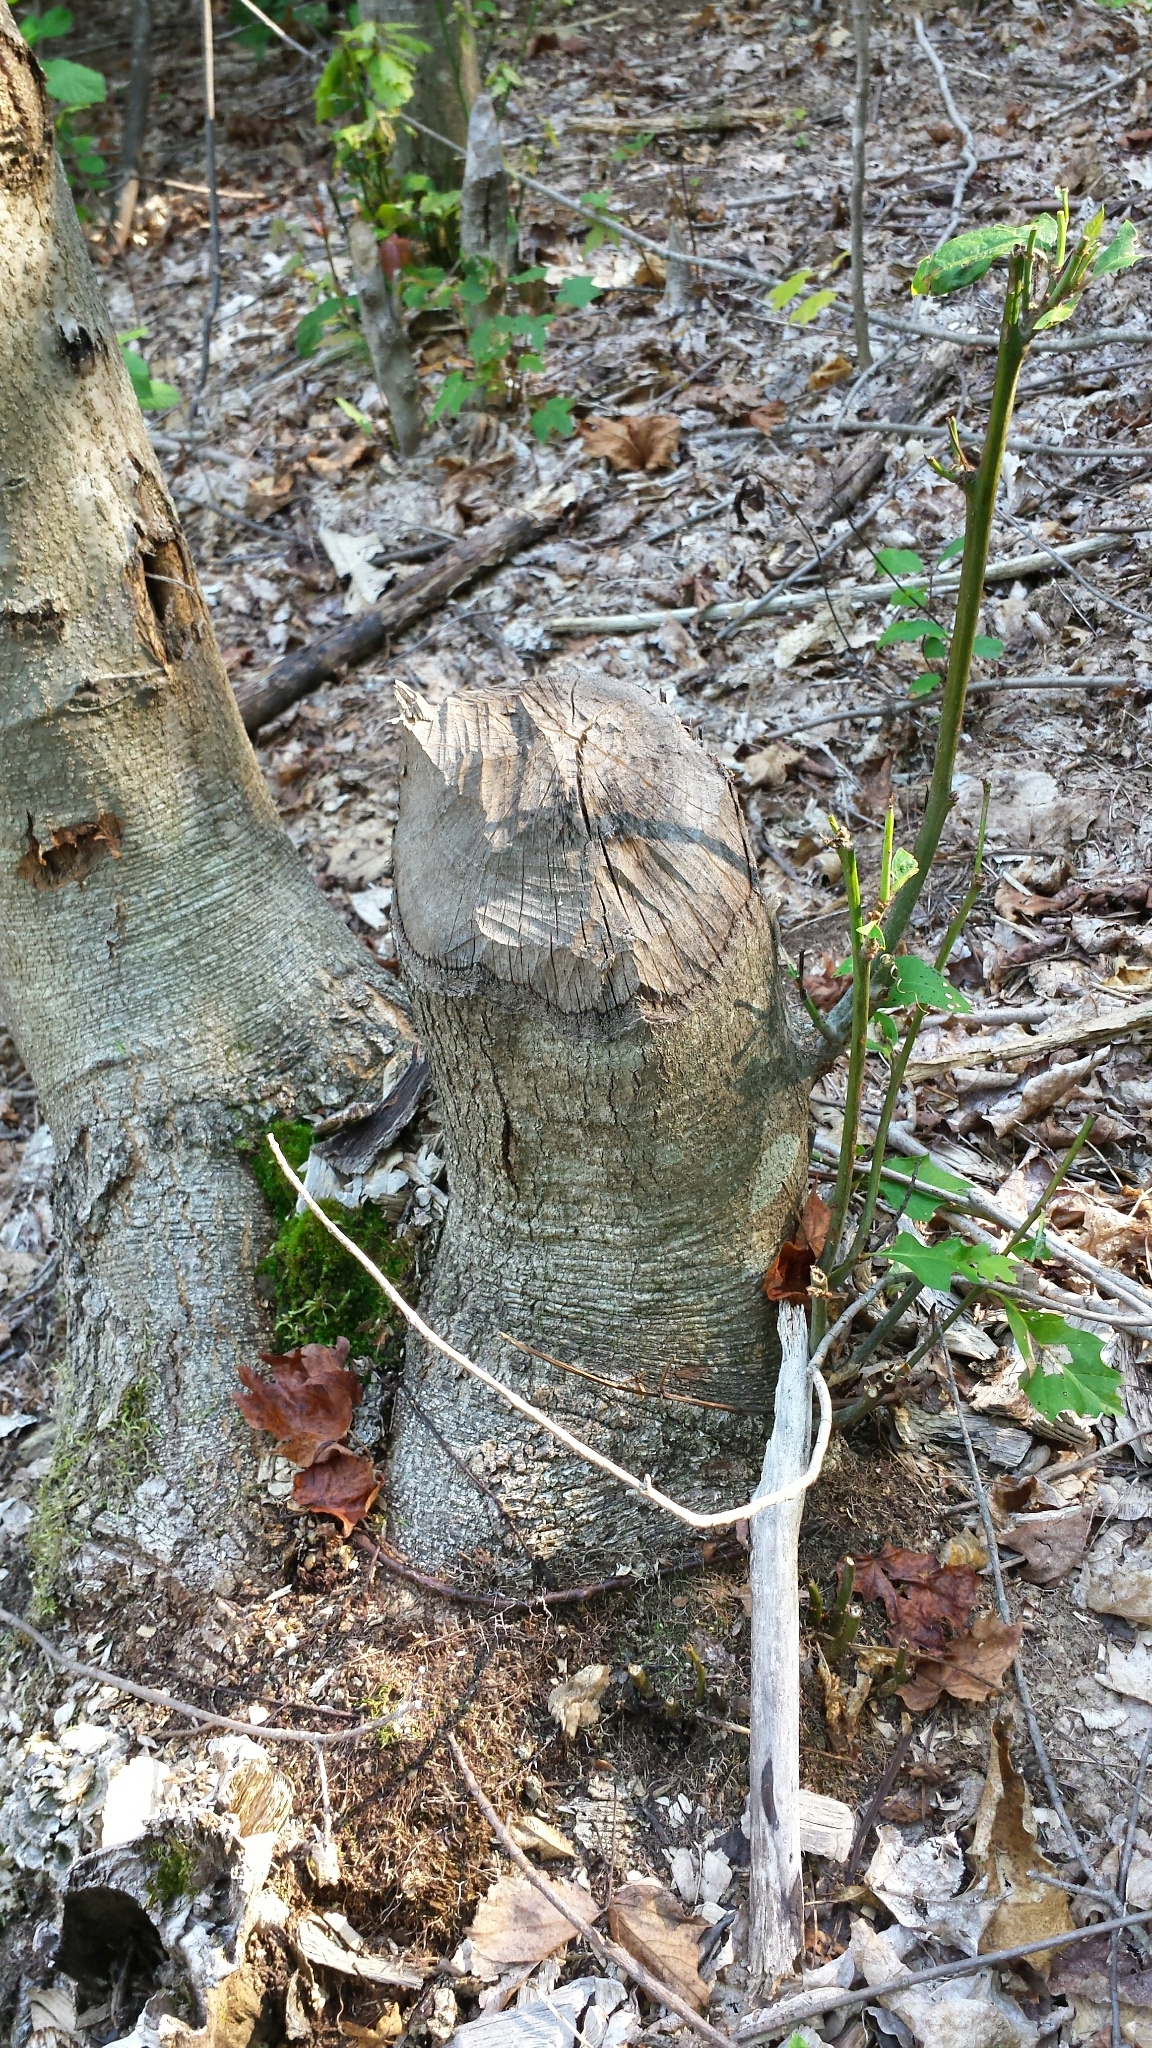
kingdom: Animalia
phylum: Chordata
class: Mammalia
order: Rodentia
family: Castoridae
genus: Castor
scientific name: Castor canadensis
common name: American beaver
